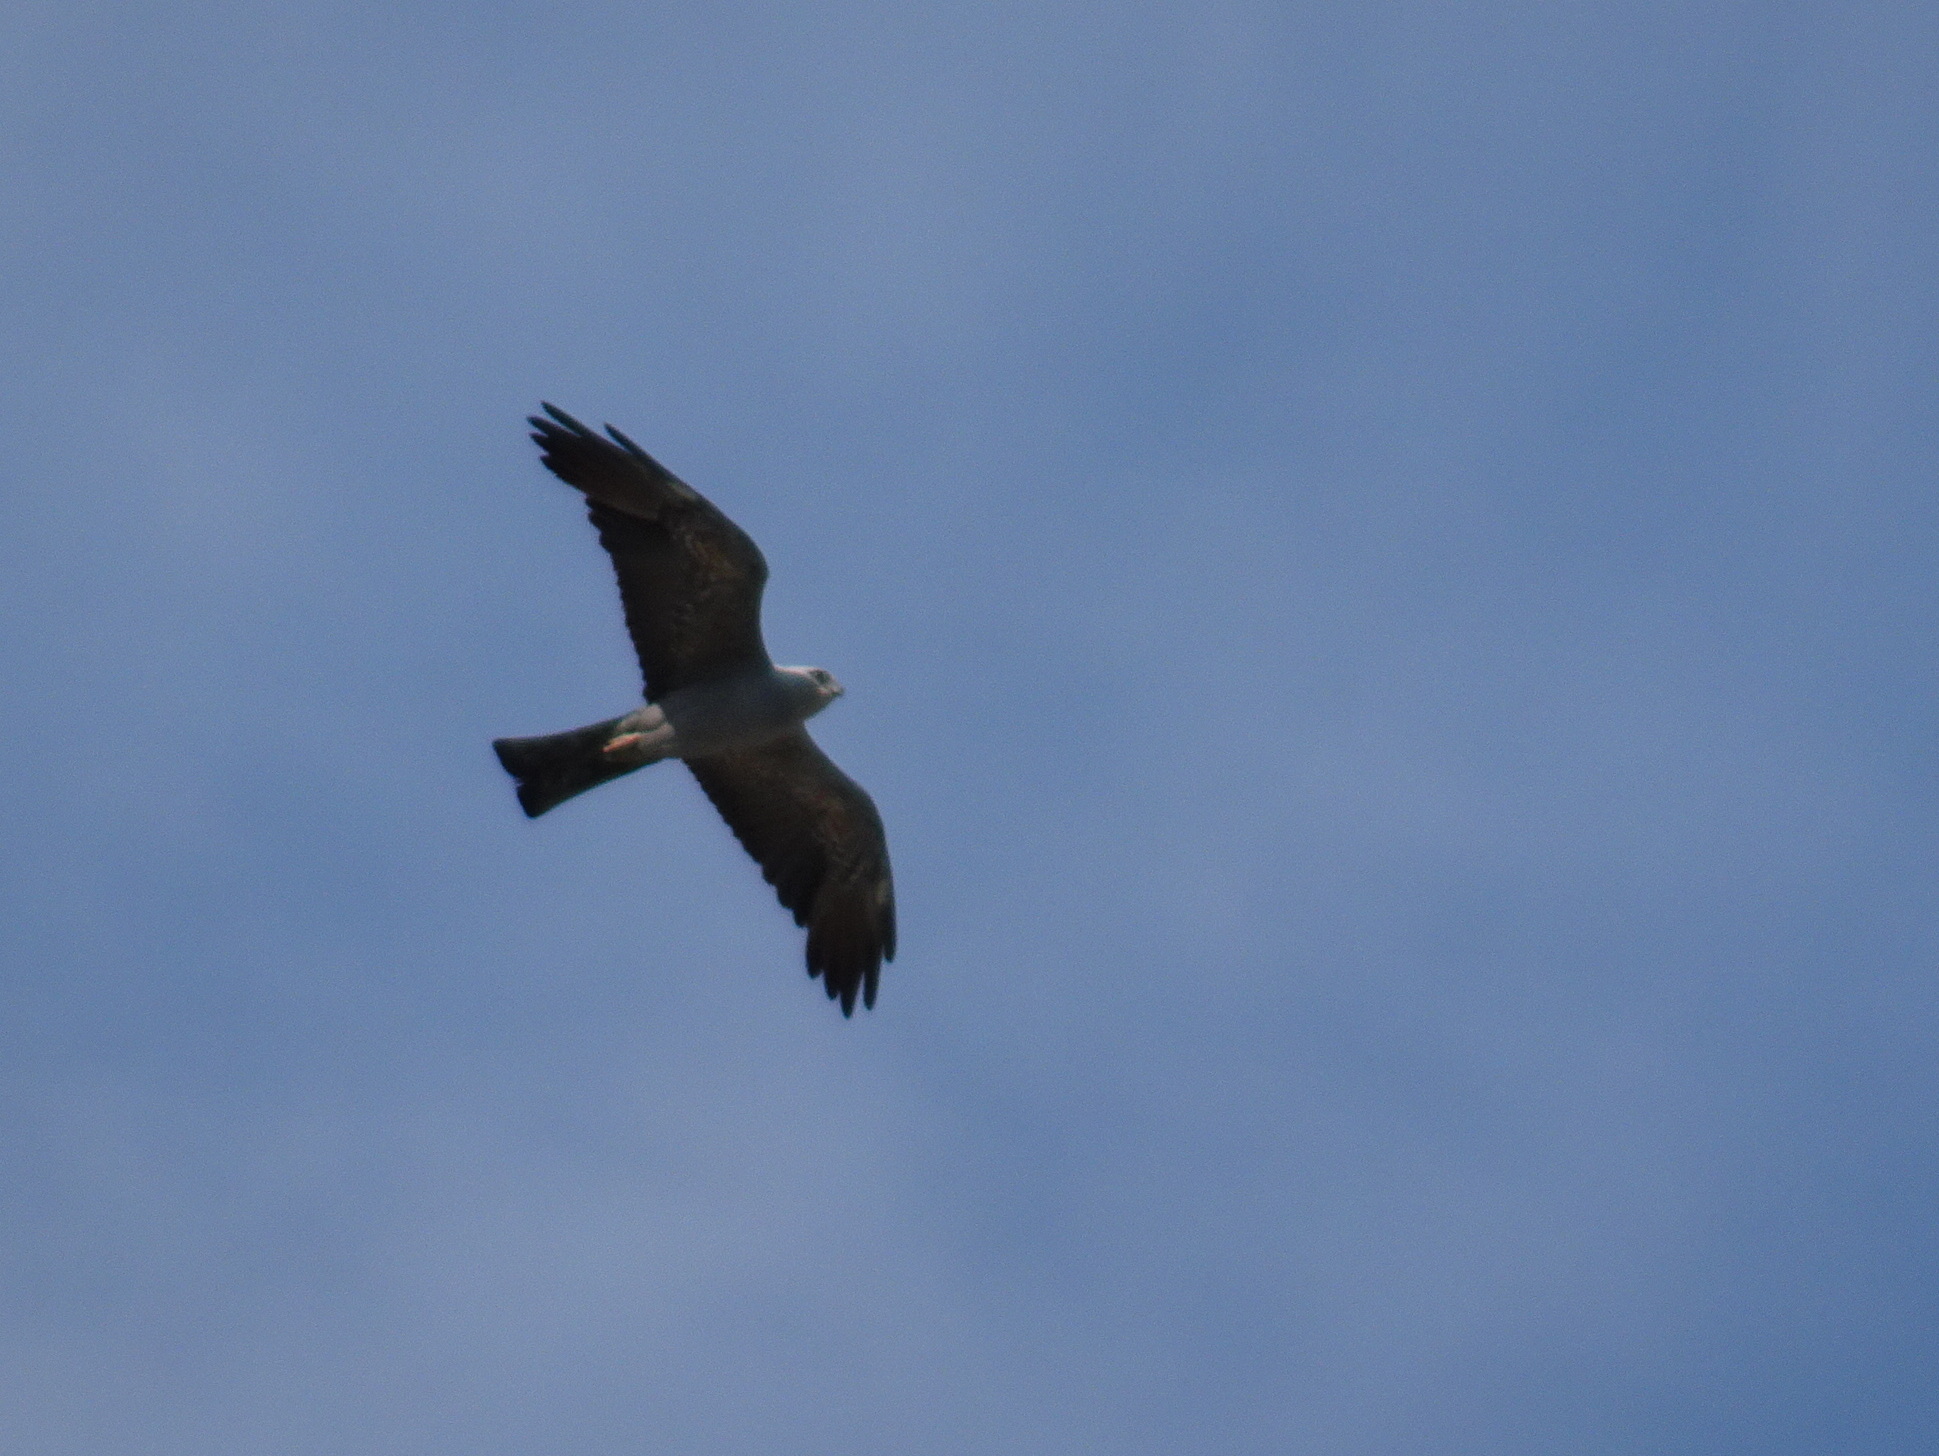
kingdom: Animalia
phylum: Chordata
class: Aves
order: Accipitriformes
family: Accipitridae
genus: Ictinia
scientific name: Ictinia mississippiensis
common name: Mississippi kite
